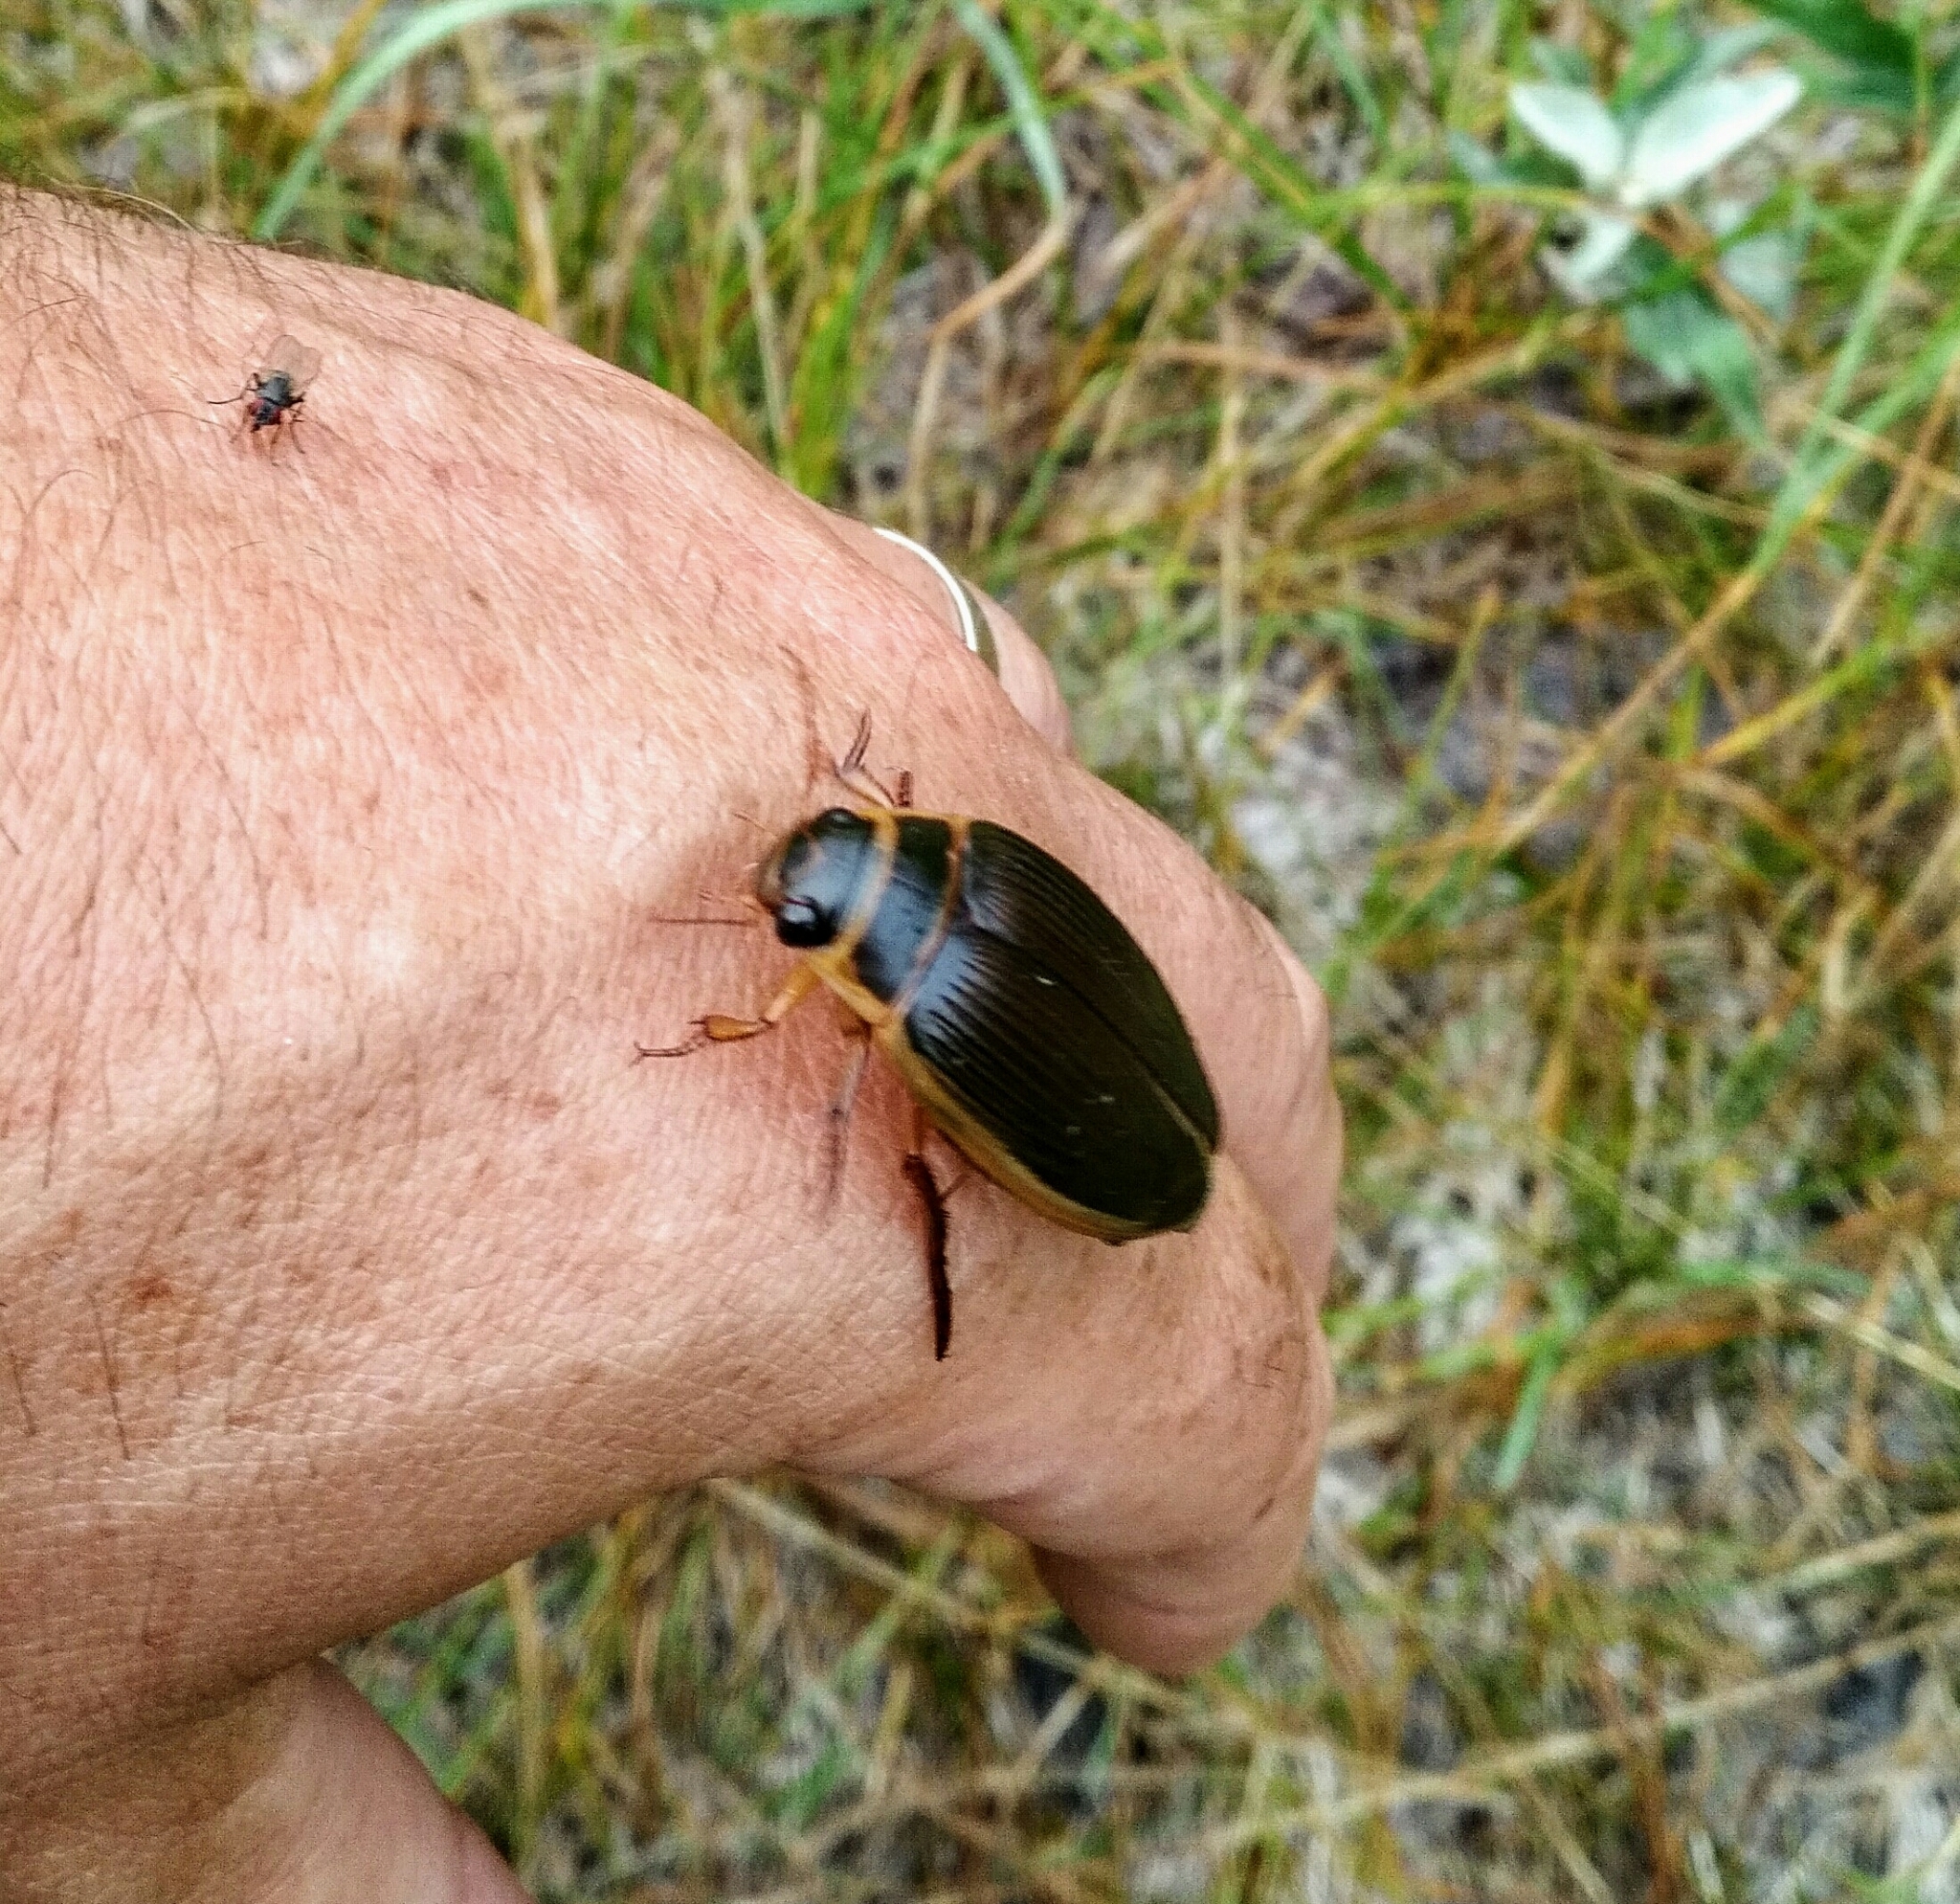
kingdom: Animalia
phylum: Arthropoda
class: Insecta
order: Coleoptera
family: Dytiscidae
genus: Dytiscus
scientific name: Dytiscus
